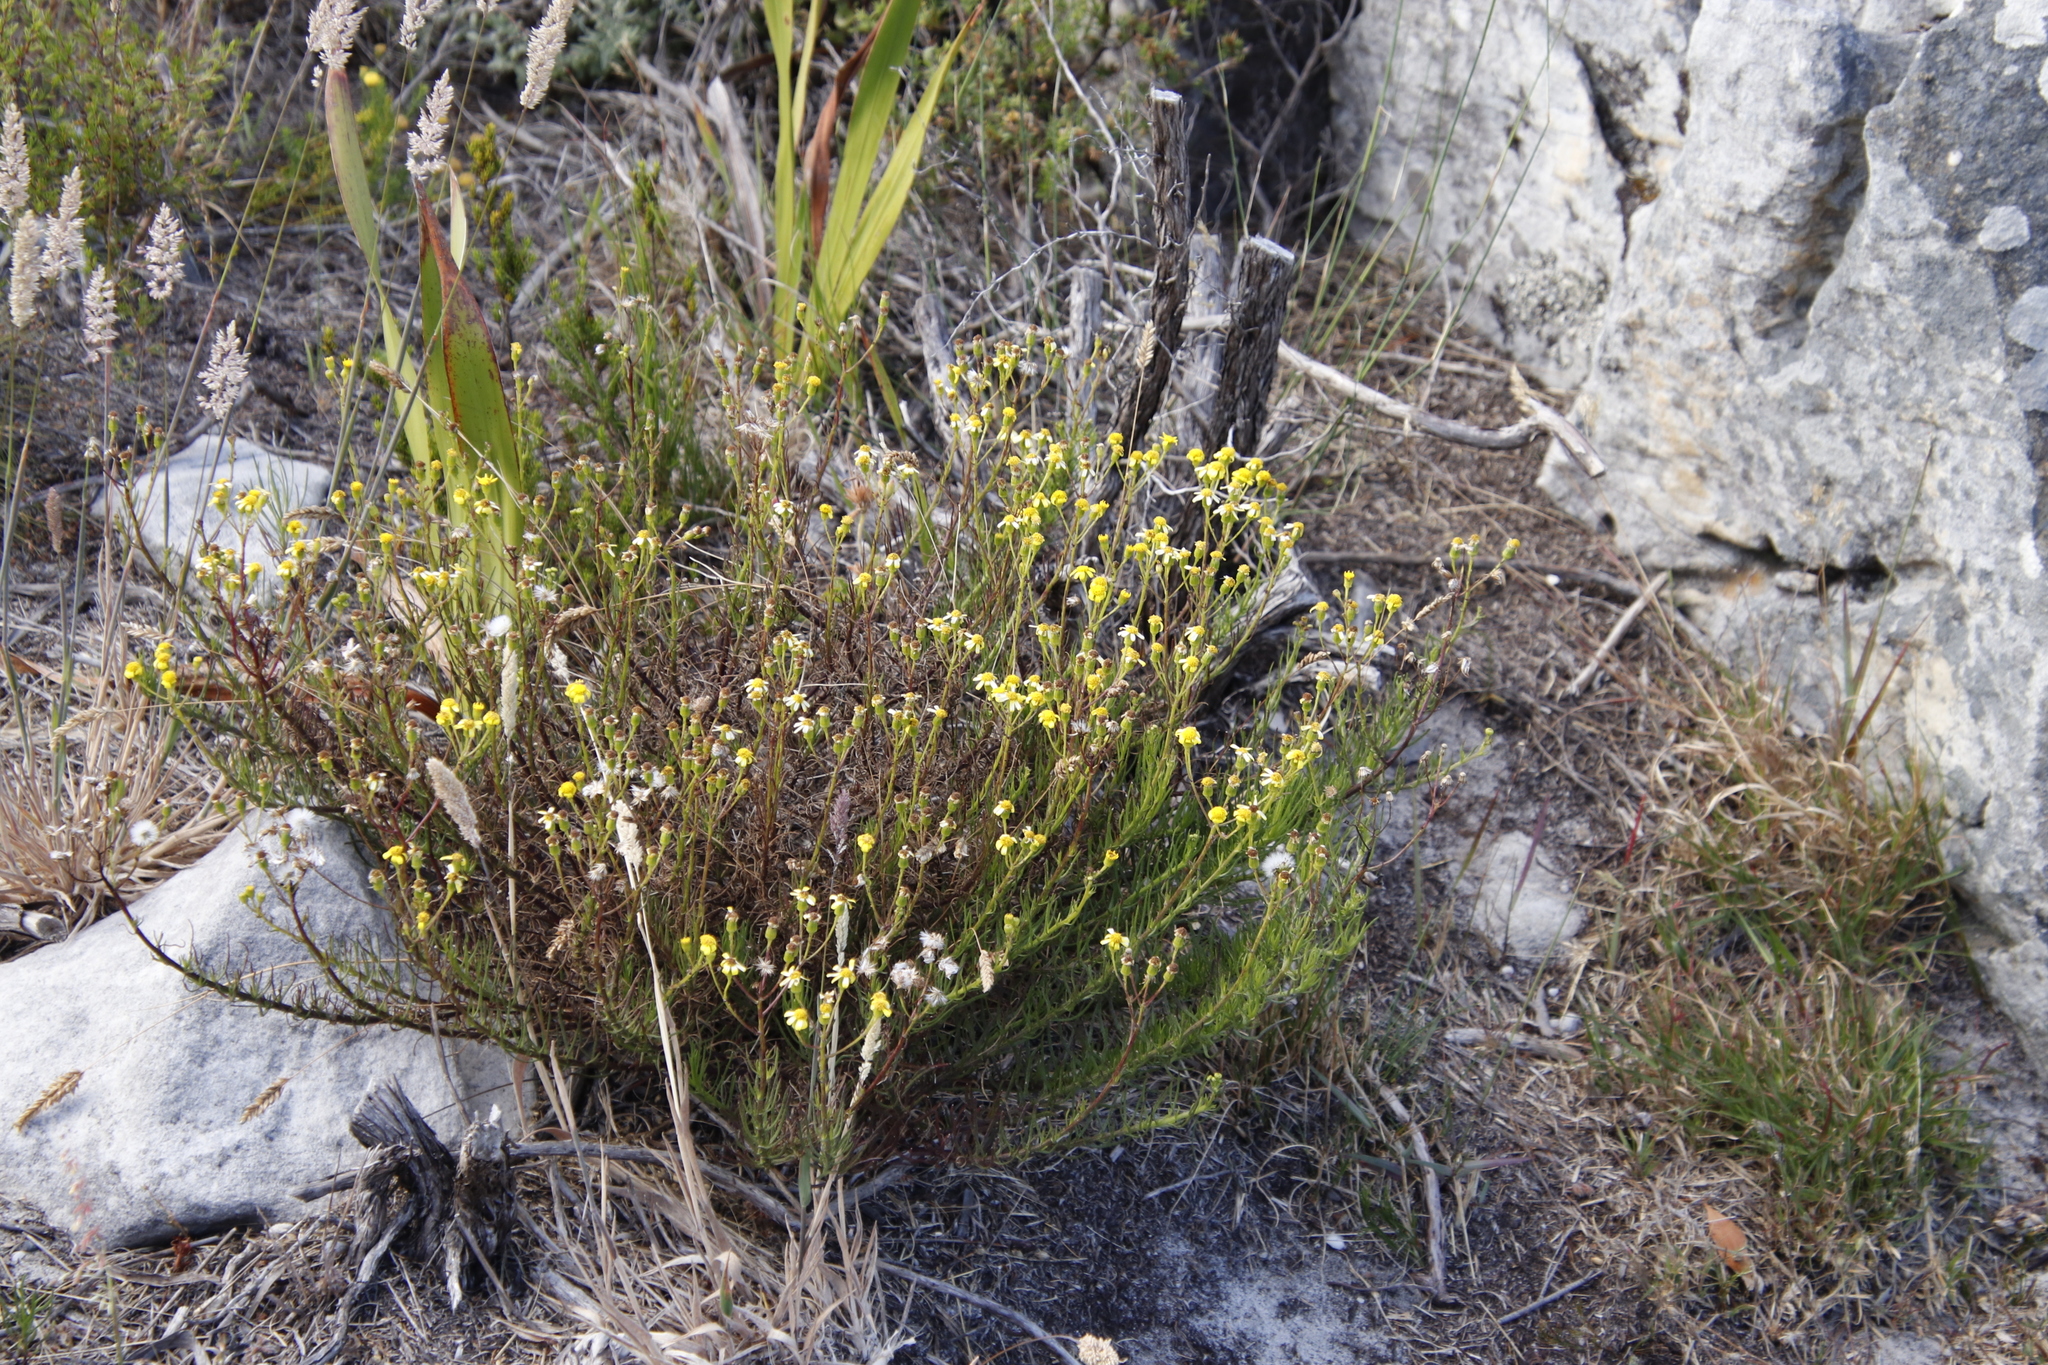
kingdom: Plantae
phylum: Tracheophyta
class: Magnoliopsida
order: Asterales
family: Asteraceae
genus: Chrysocoma
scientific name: Chrysocoma cernua
